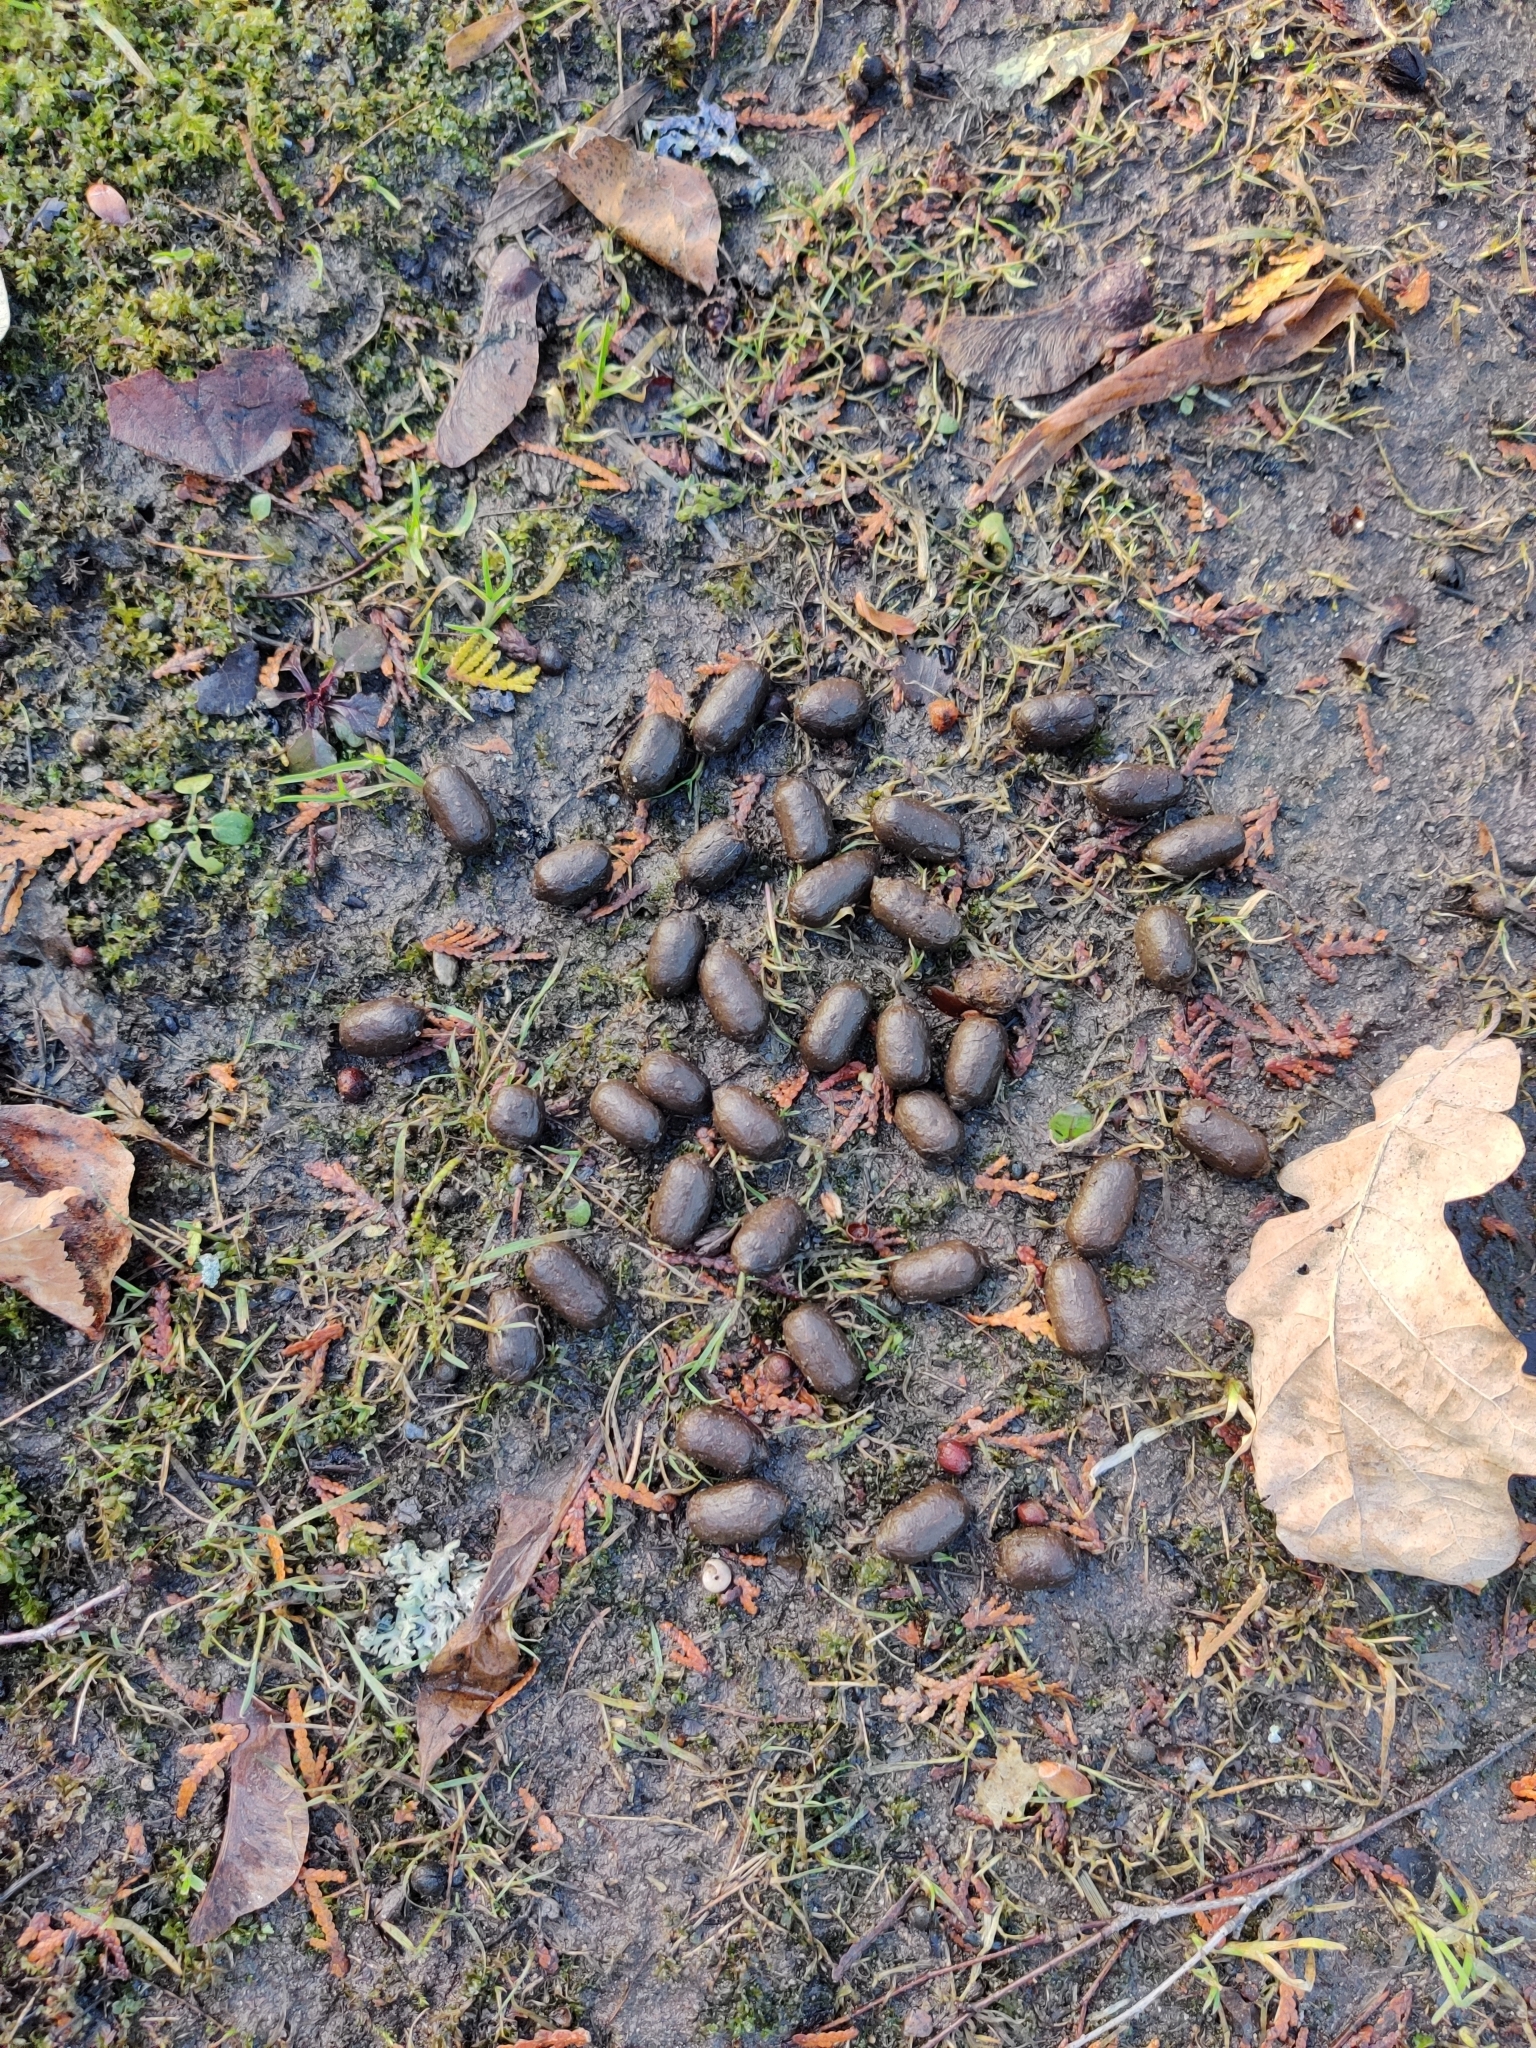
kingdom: Animalia
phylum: Chordata
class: Mammalia
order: Artiodactyla
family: Cervidae
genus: Capreolus
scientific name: Capreolus capreolus
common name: Western roe deer
